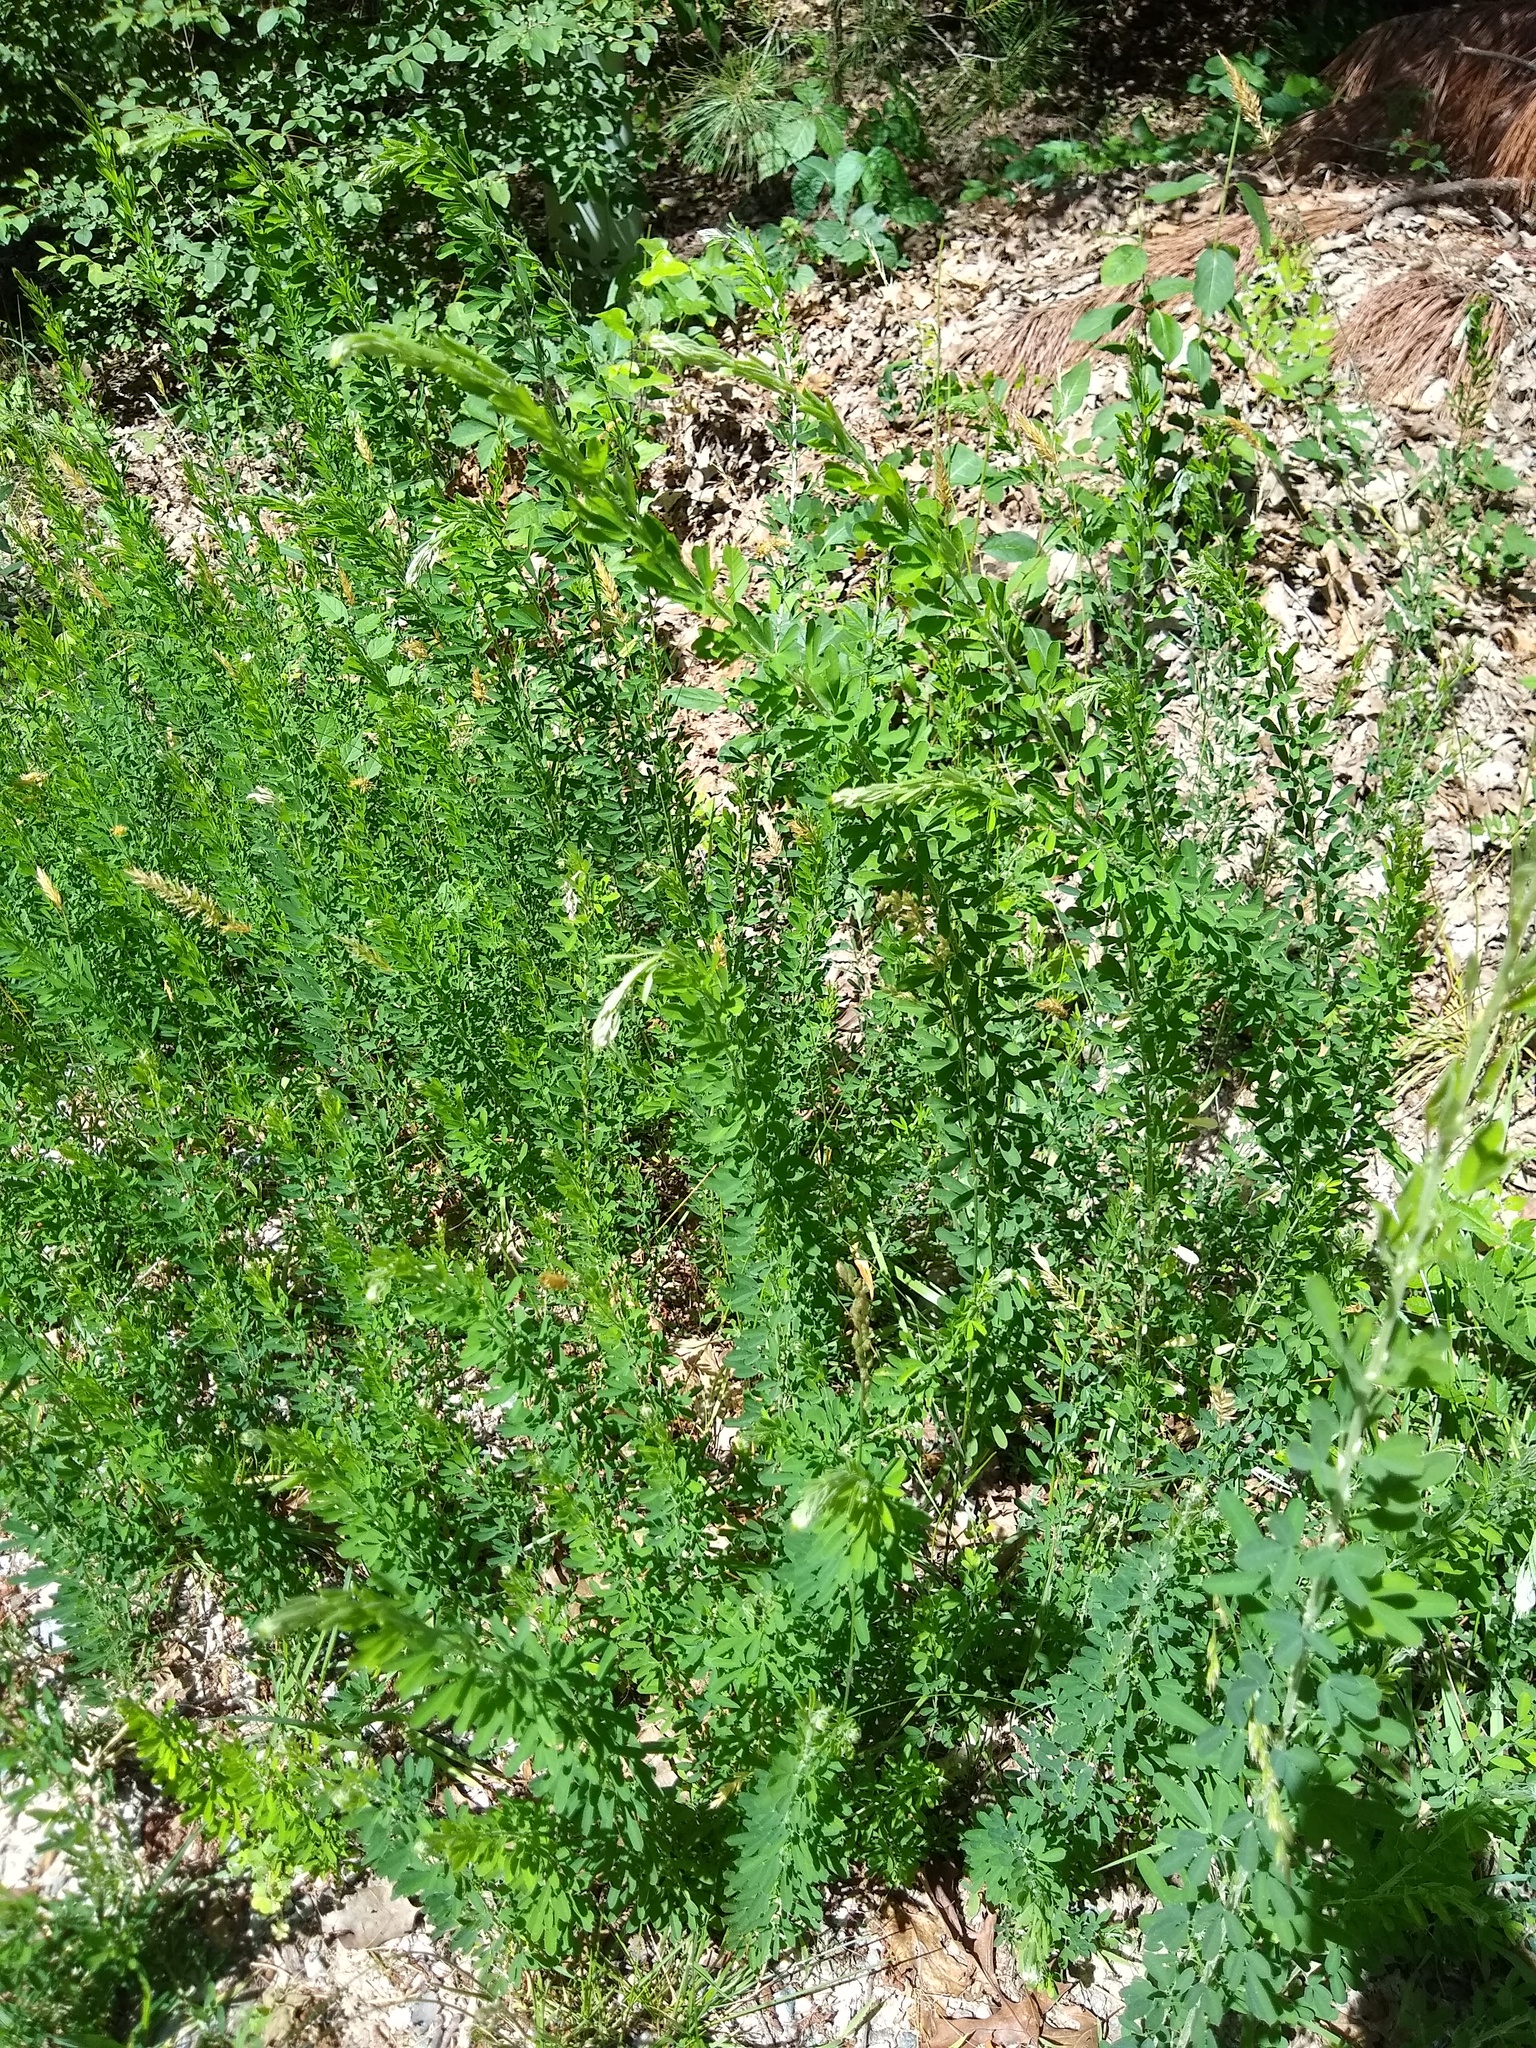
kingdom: Plantae
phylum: Tracheophyta
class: Magnoliopsida
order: Fabales
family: Fabaceae
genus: Lespedeza
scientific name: Lespedeza cuneata
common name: Chinese bush-clover
